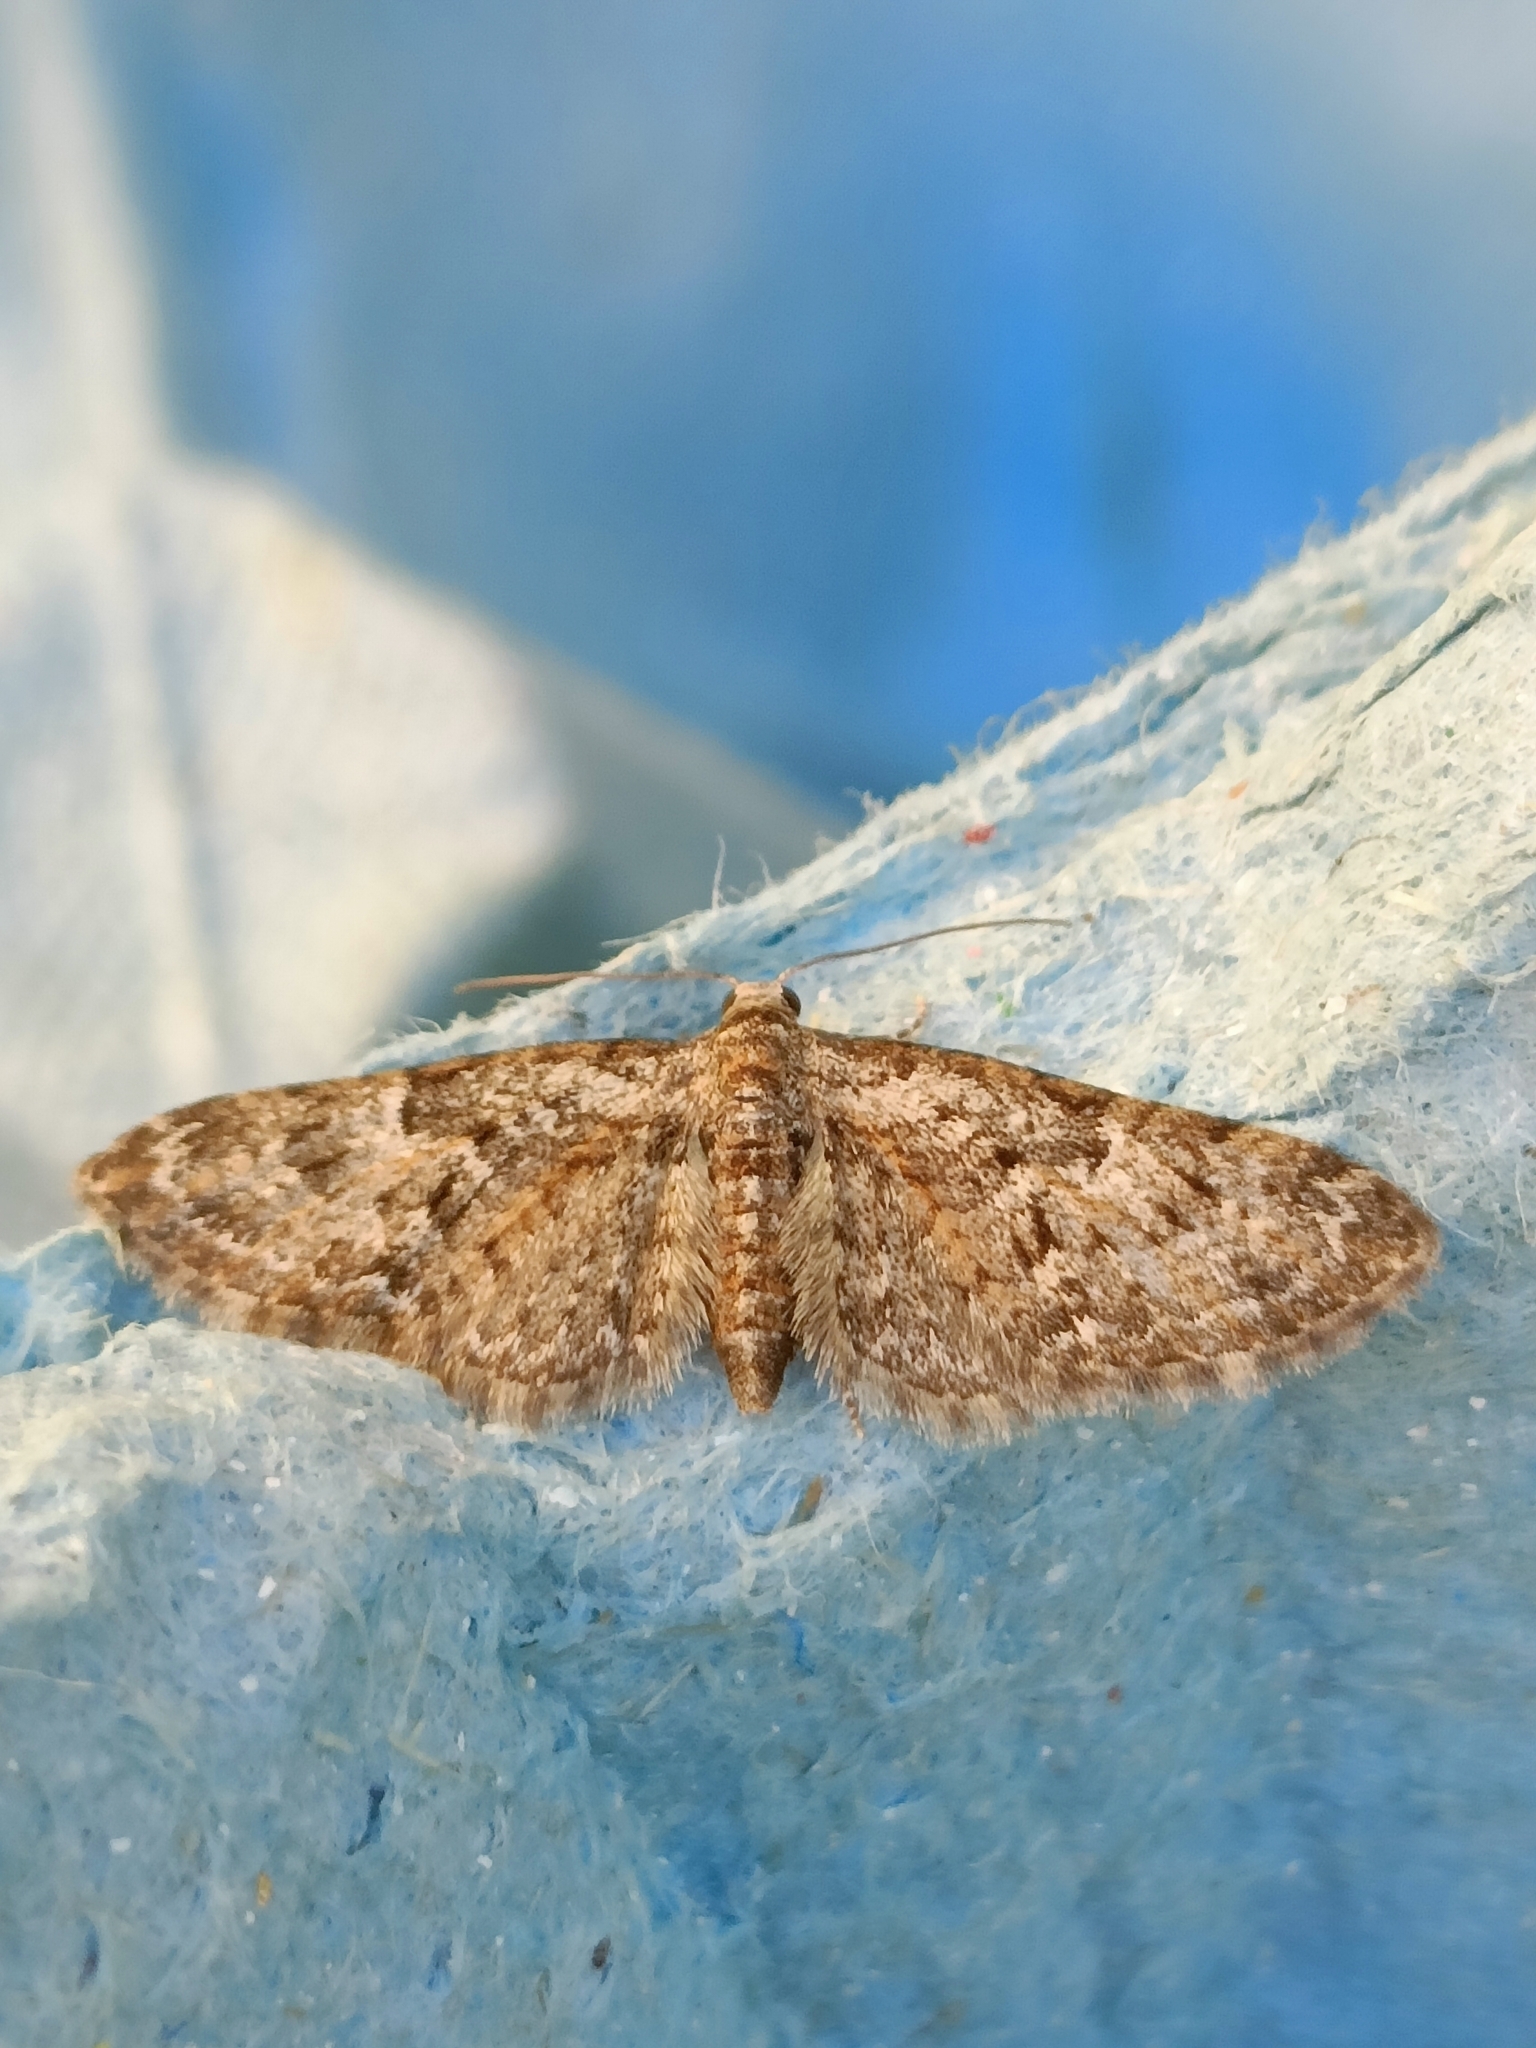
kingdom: Animalia
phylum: Arthropoda
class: Insecta
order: Lepidoptera
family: Geometridae
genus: Eupithecia
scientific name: Eupithecia abbreviata
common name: Brindled pug
